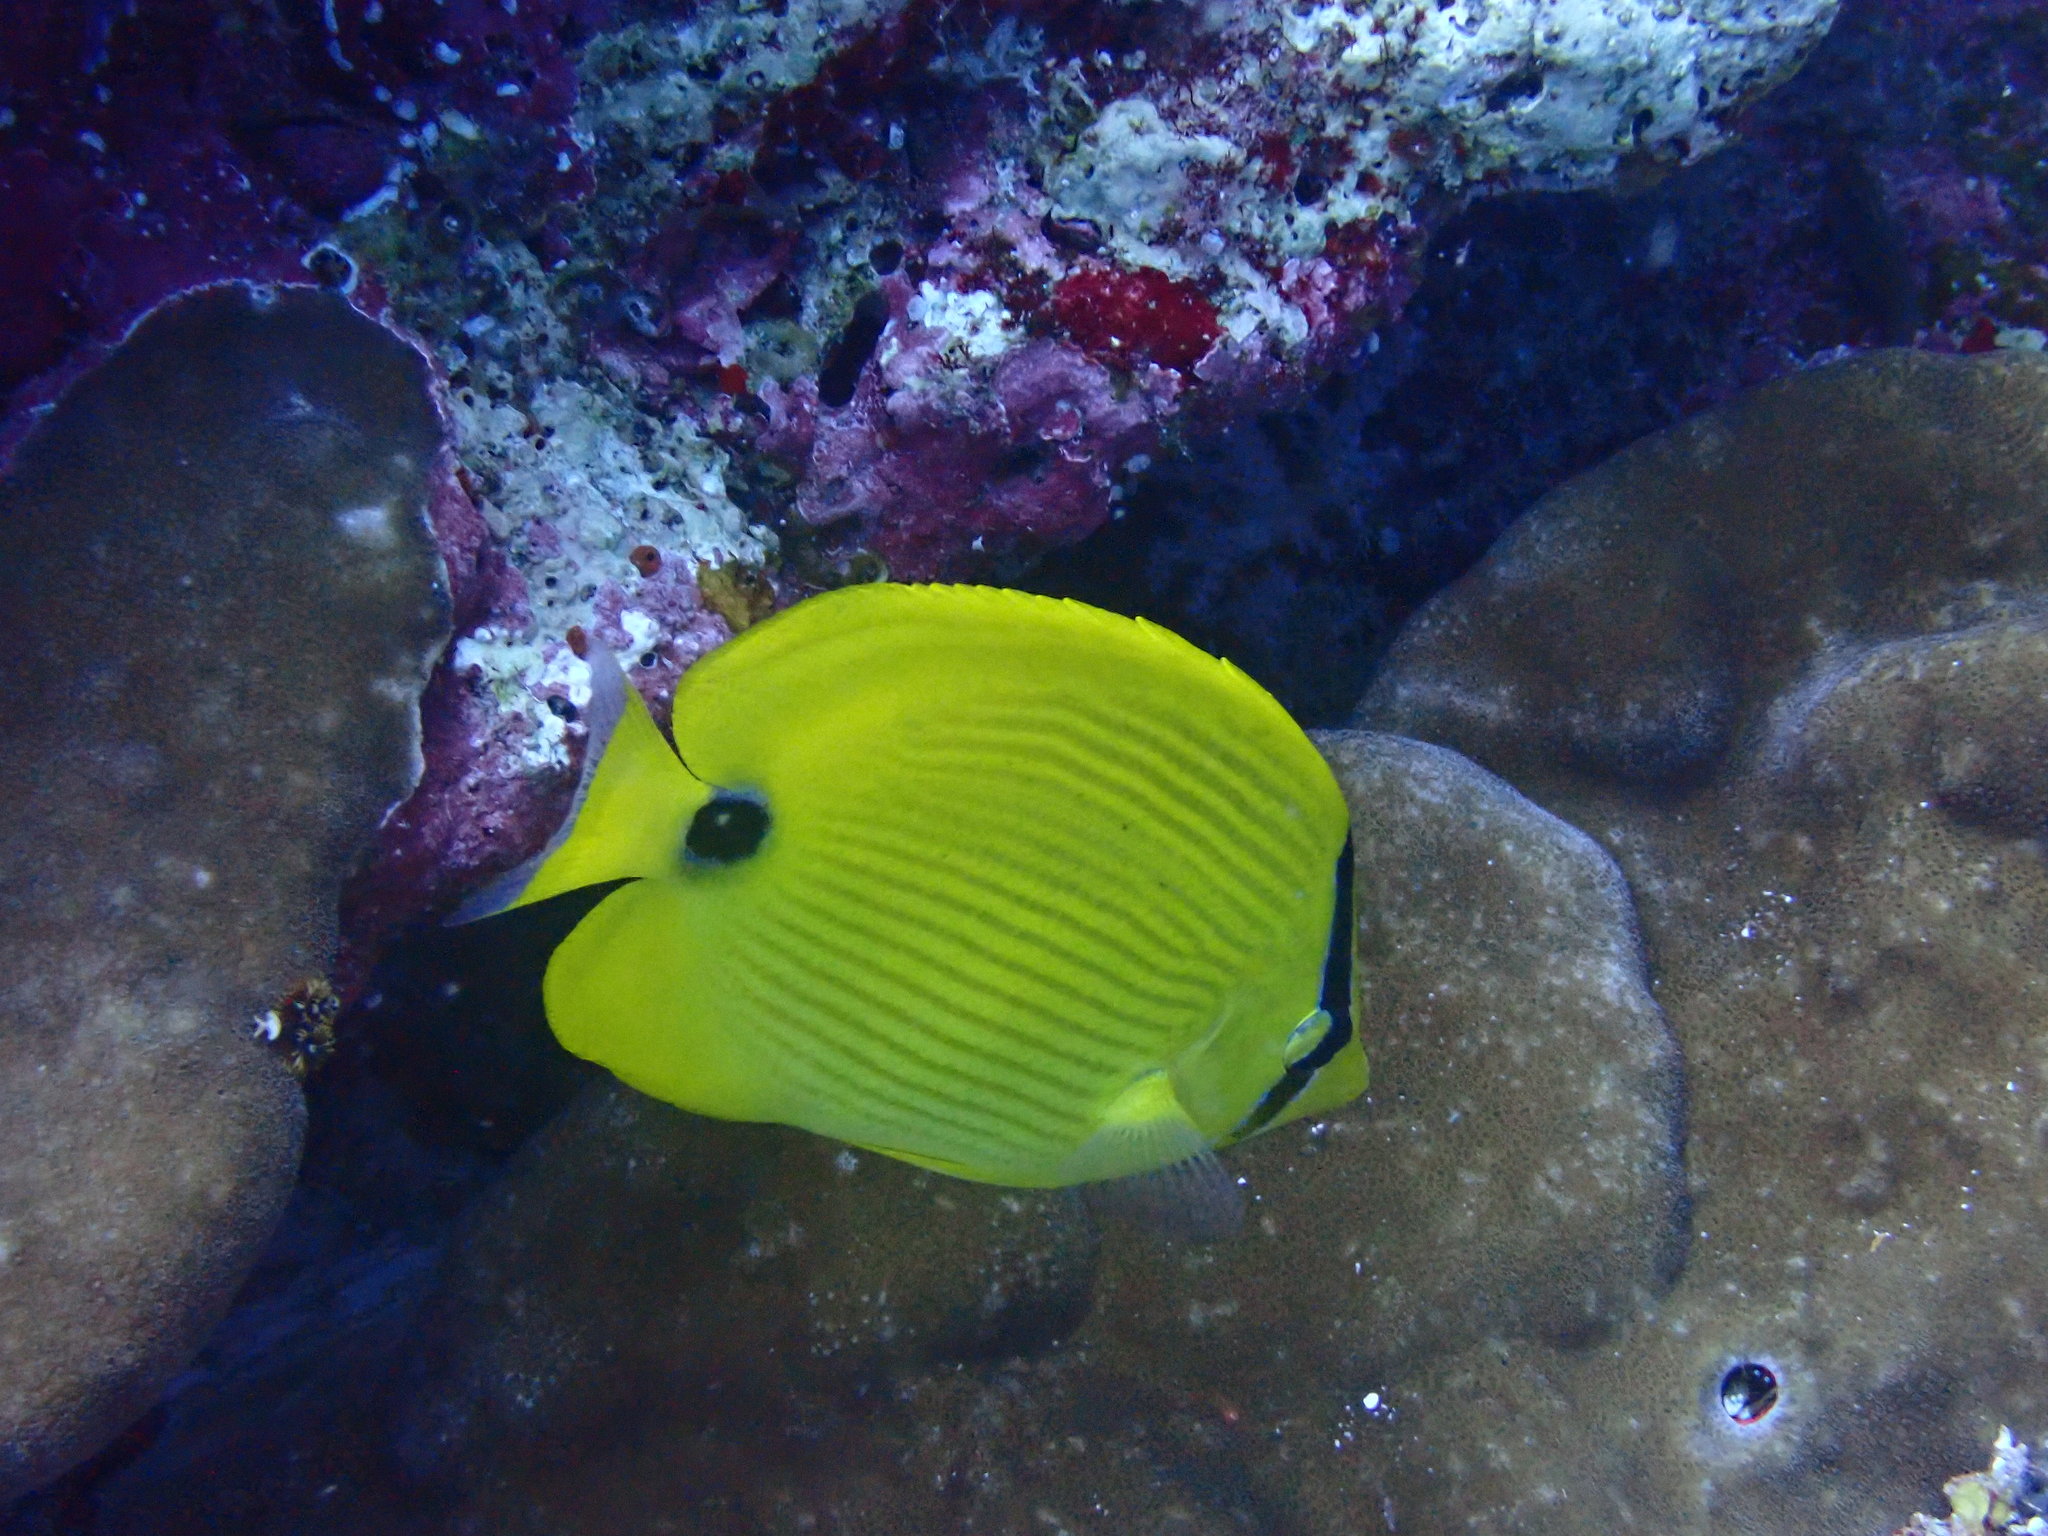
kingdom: Animalia
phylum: Chordata
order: Perciformes
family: Chaetodontidae
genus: Chaetodon
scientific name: Chaetodon andamanensis
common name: Yellow butterflyfish
